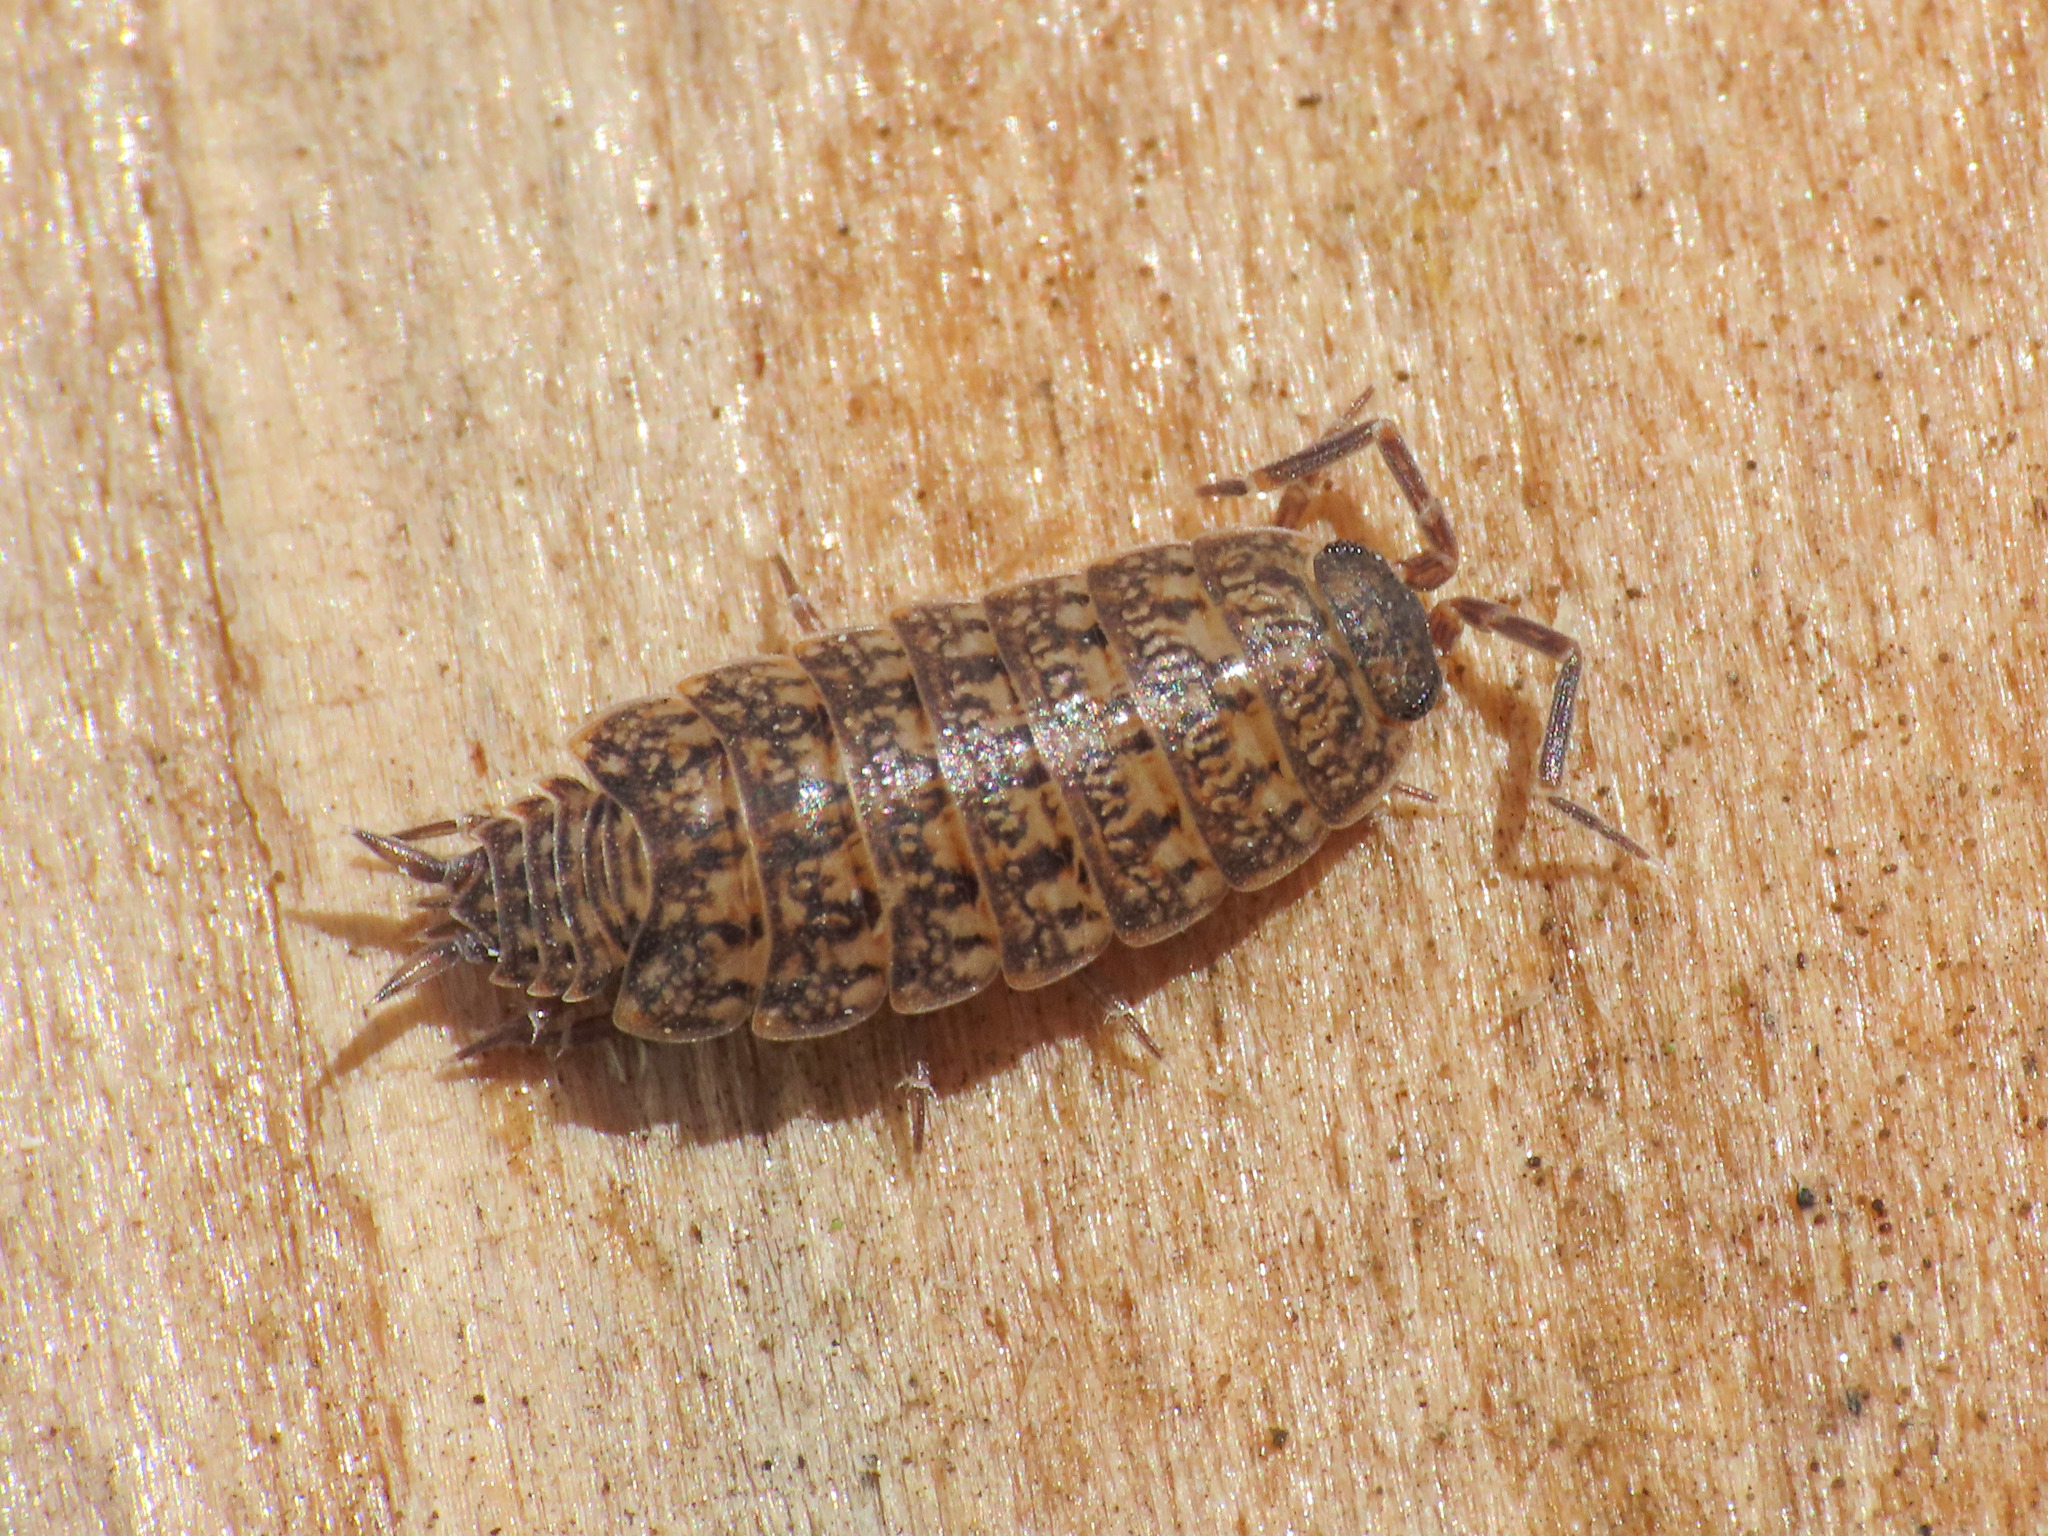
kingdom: Animalia
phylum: Arthropoda
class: Malacostraca
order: Isopoda
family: Agnaridae
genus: Orthometopon
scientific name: Orthometopon dalmatinum
